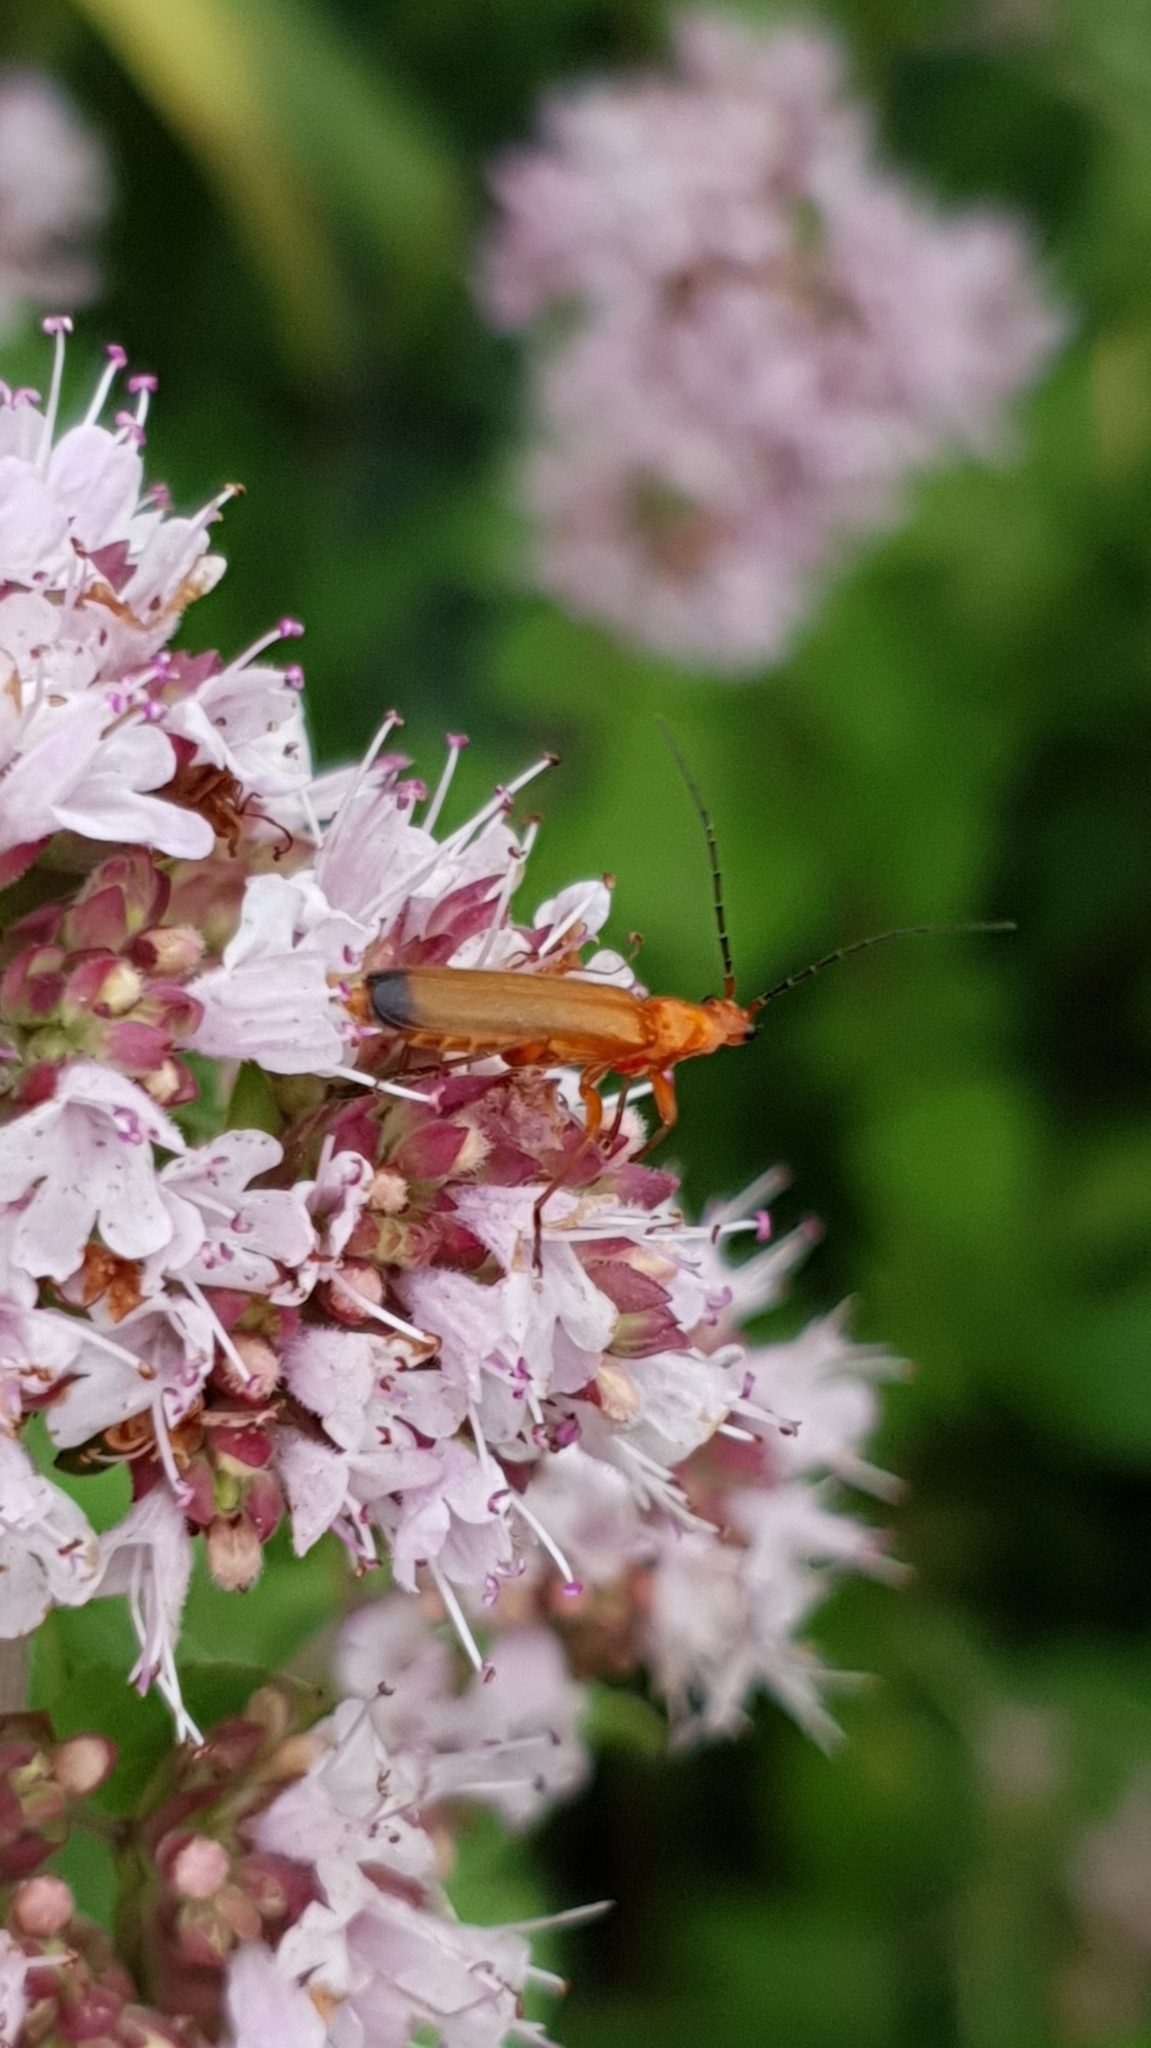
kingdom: Animalia
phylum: Arthropoda
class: Insecta
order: Coleoptera
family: Cantharidae
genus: Rhagonycha
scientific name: Rhagonycha fulva
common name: Common red soldier beetle
